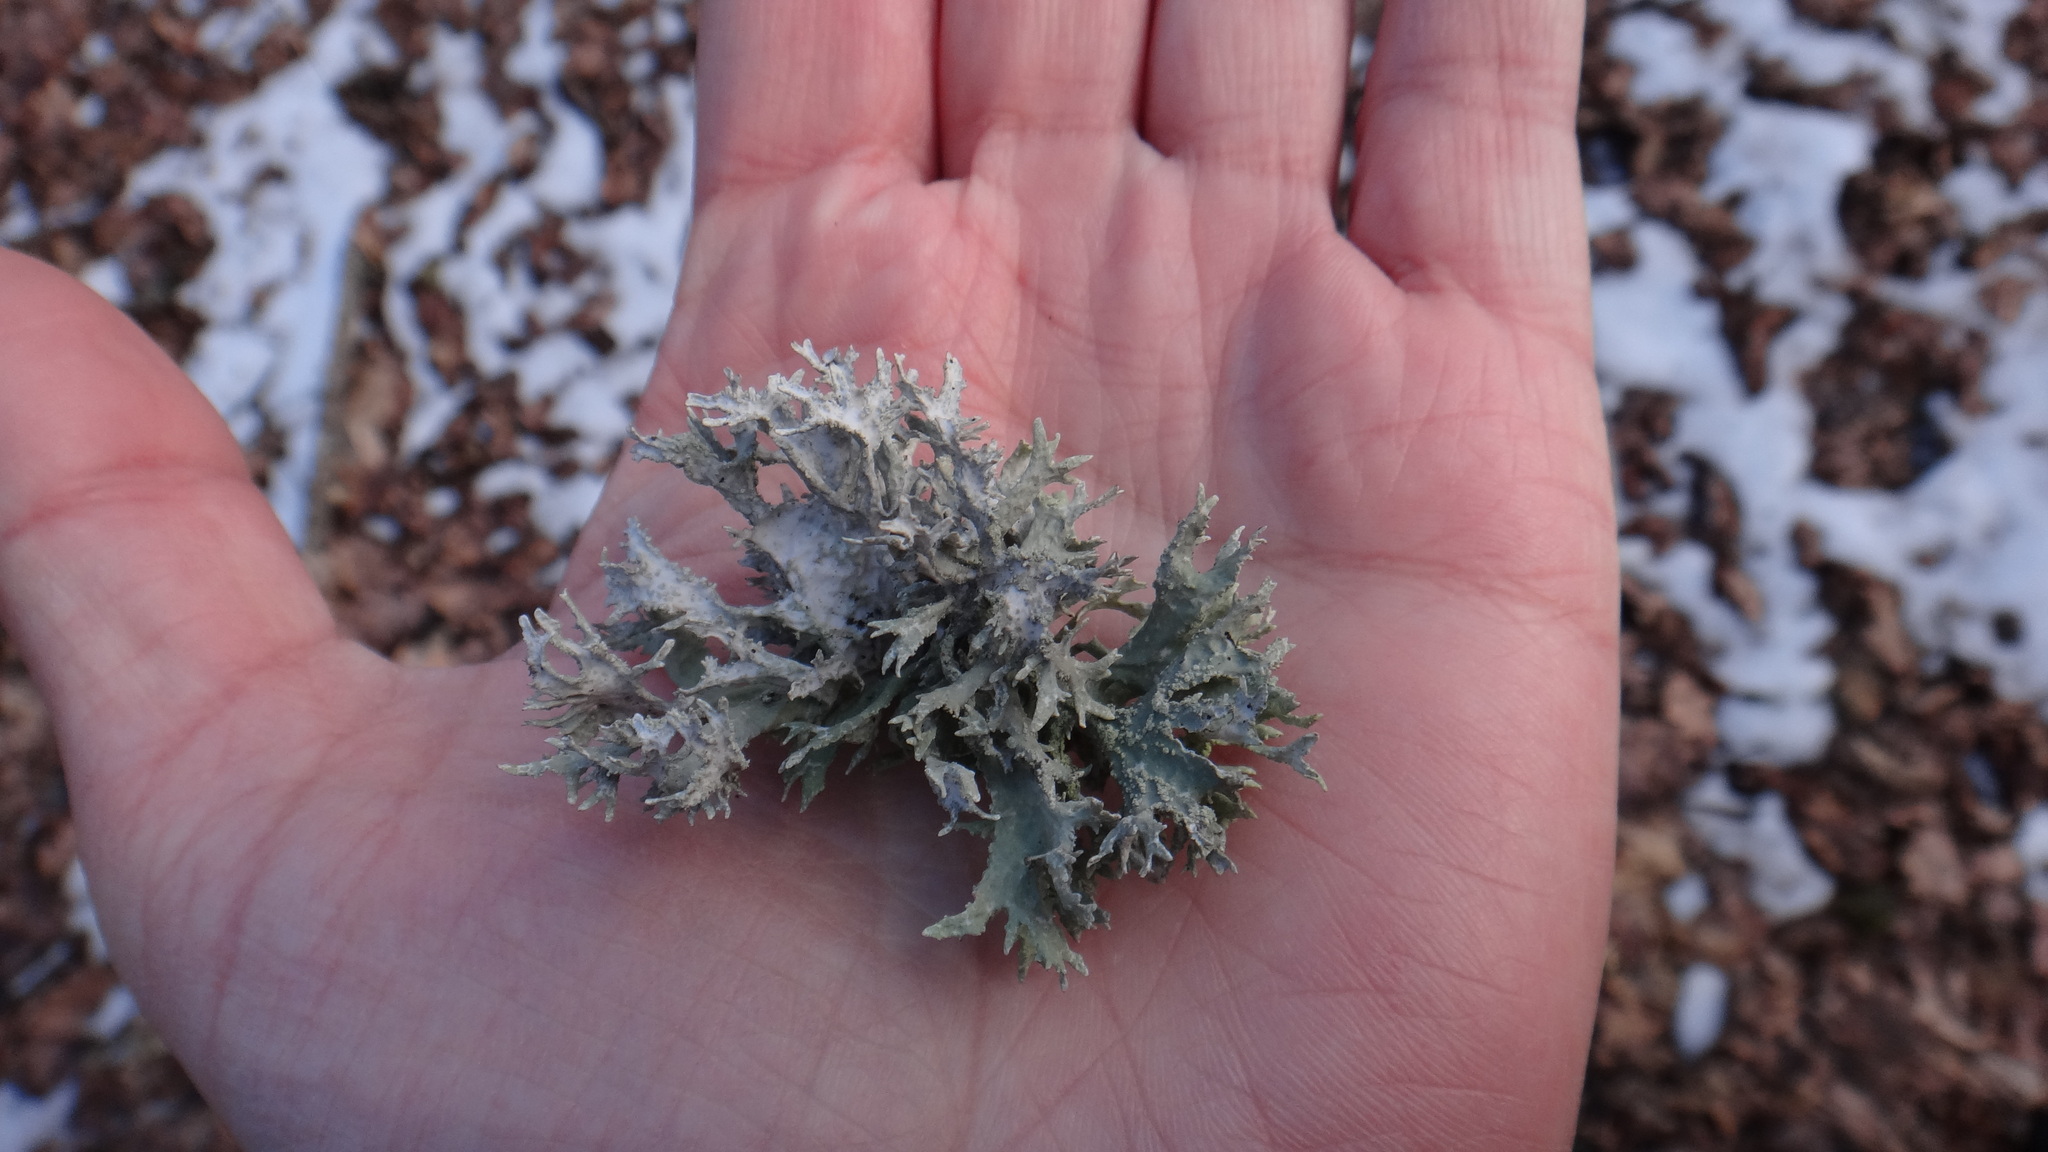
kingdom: Fungi
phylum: Ascomycota
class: Lecanoromycetes
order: Lecanorales
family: Parmeliaceae
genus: Evernia
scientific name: Evernia prunastri
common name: Oak moss
